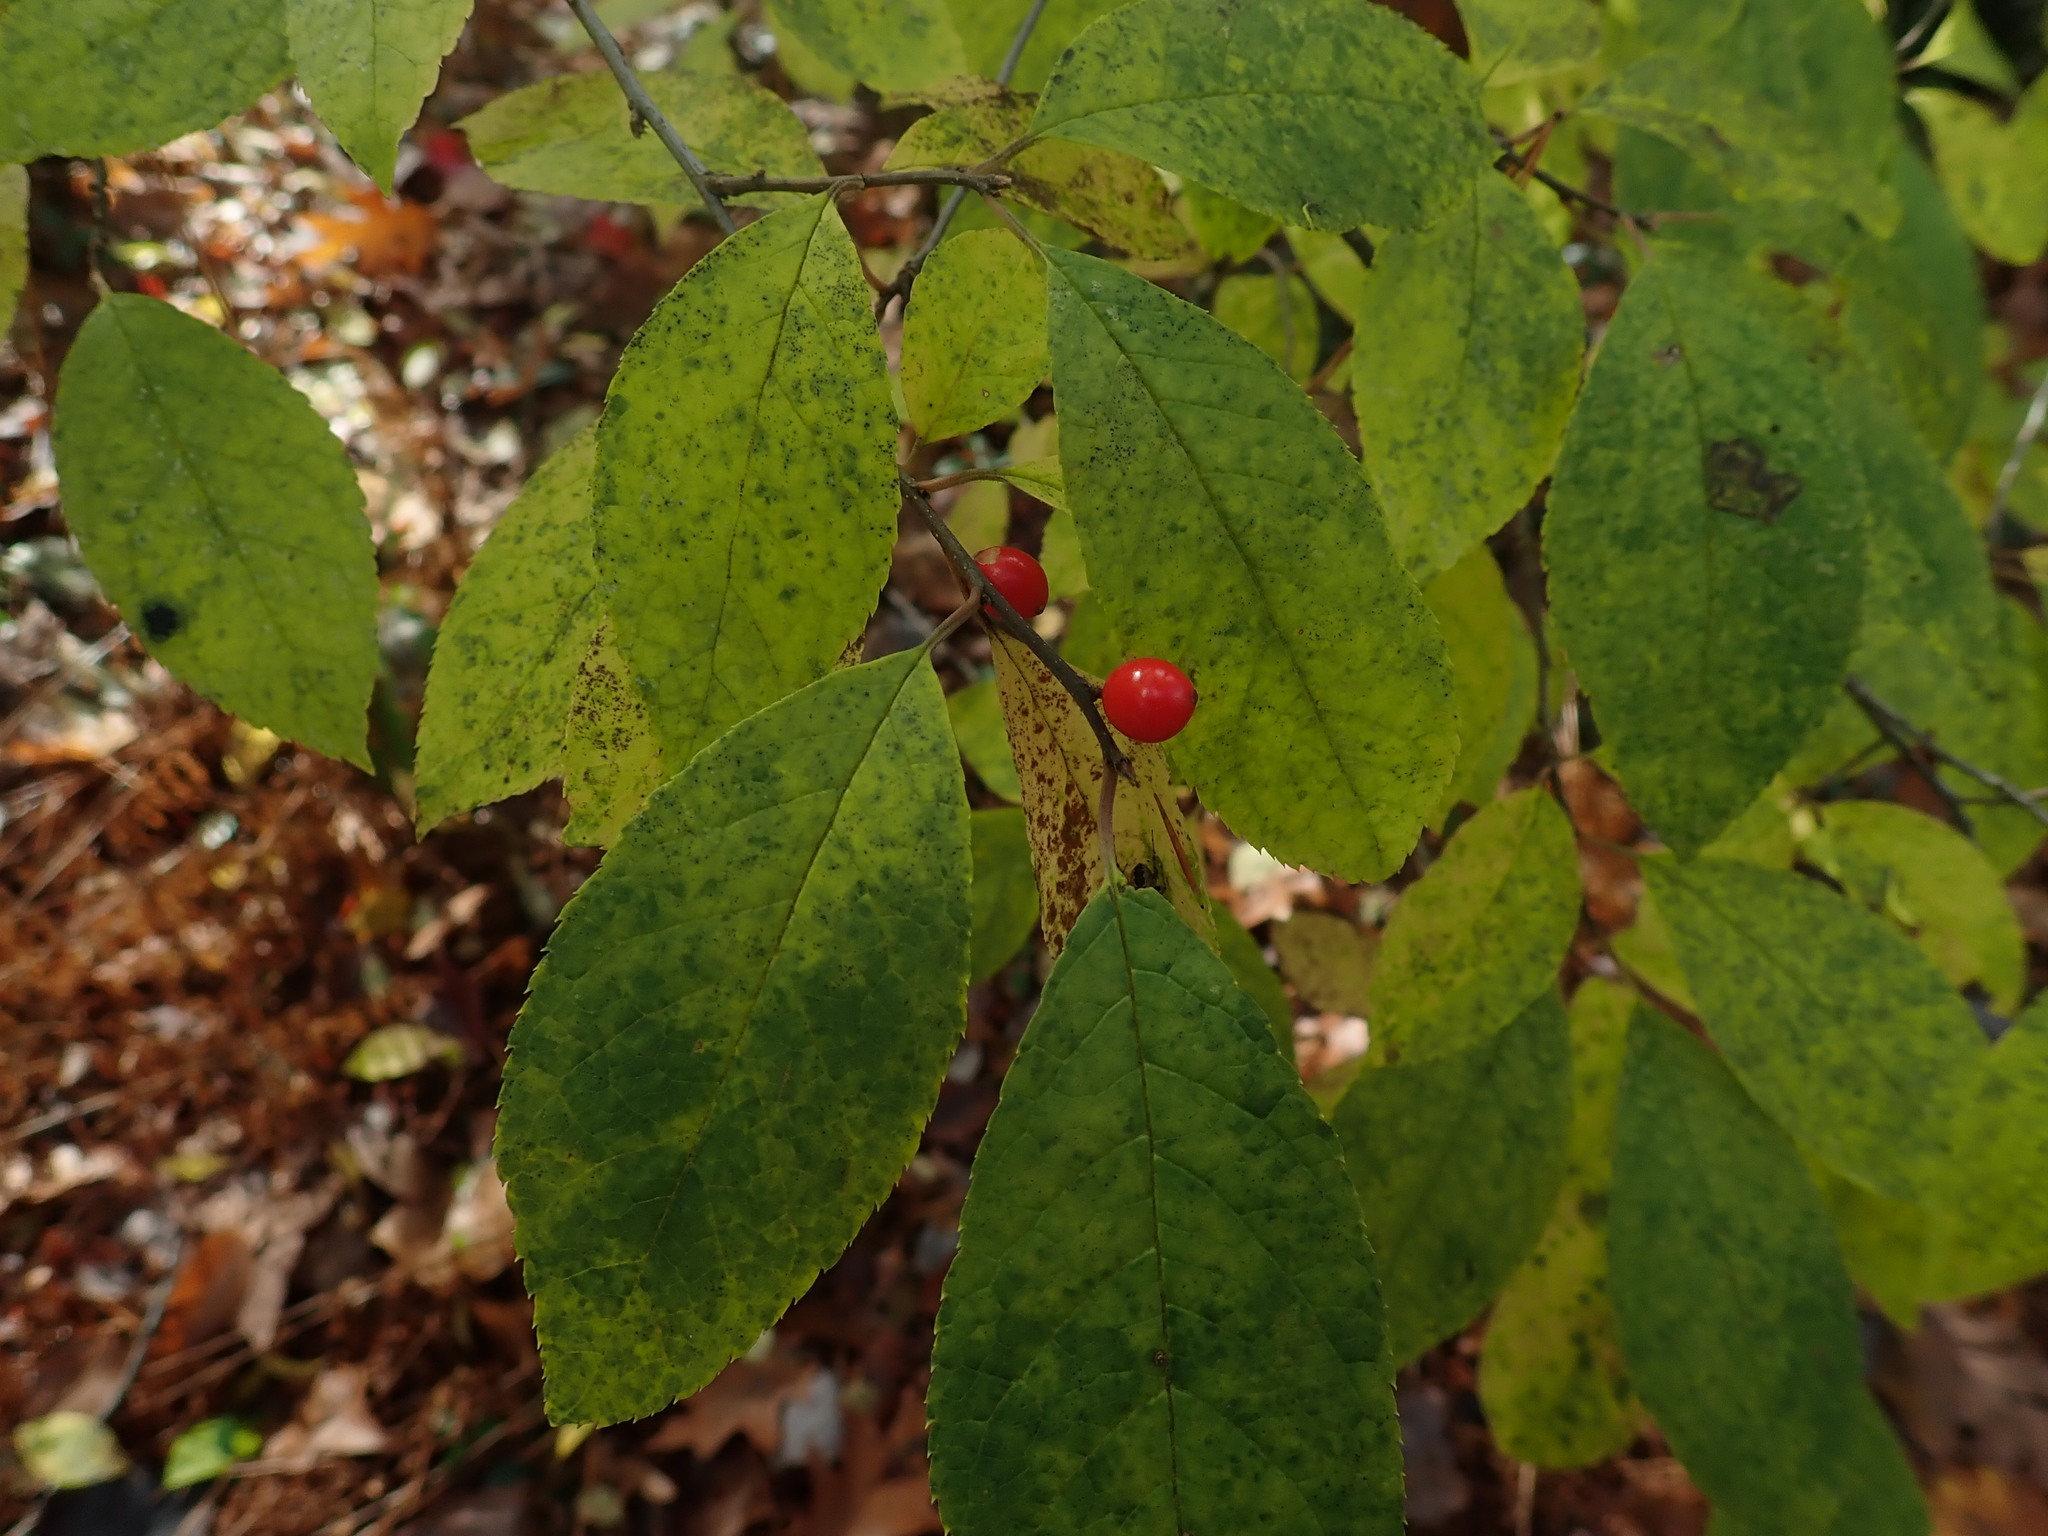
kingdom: Plantae
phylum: Tracheophyta
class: Magnoliopsida
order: Laurales
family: Lauraceae
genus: Lindera
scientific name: Lindera benzoin
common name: Spicebush
